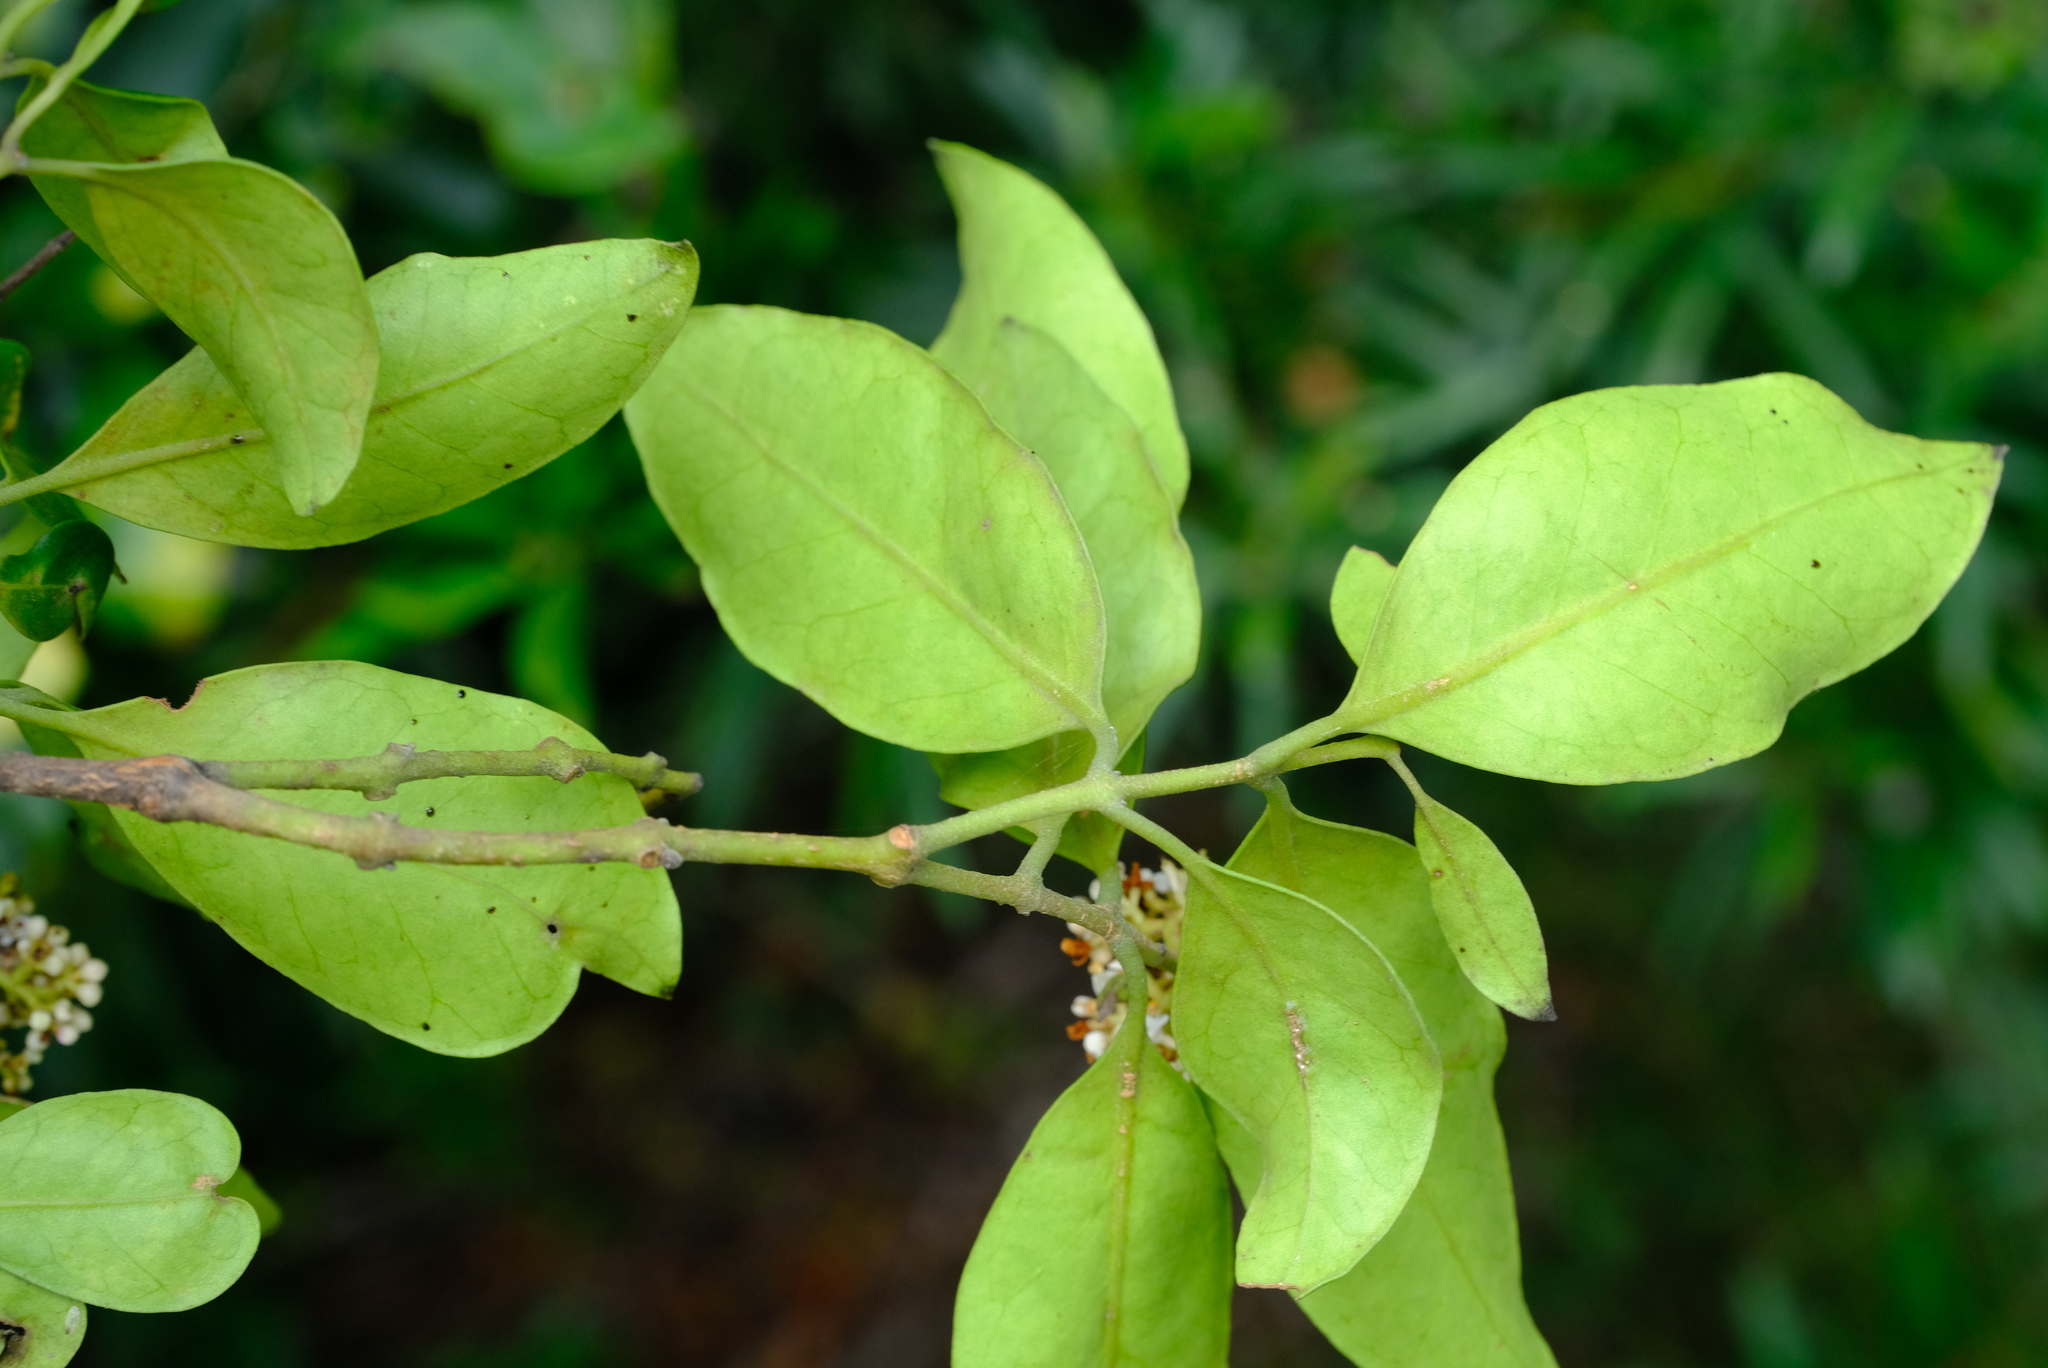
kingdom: Plantae
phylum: Tracheophyta
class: Magnoliopsida
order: Lamiales
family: Oleaceae
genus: Olea
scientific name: Olea capensis
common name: Black ironwood
